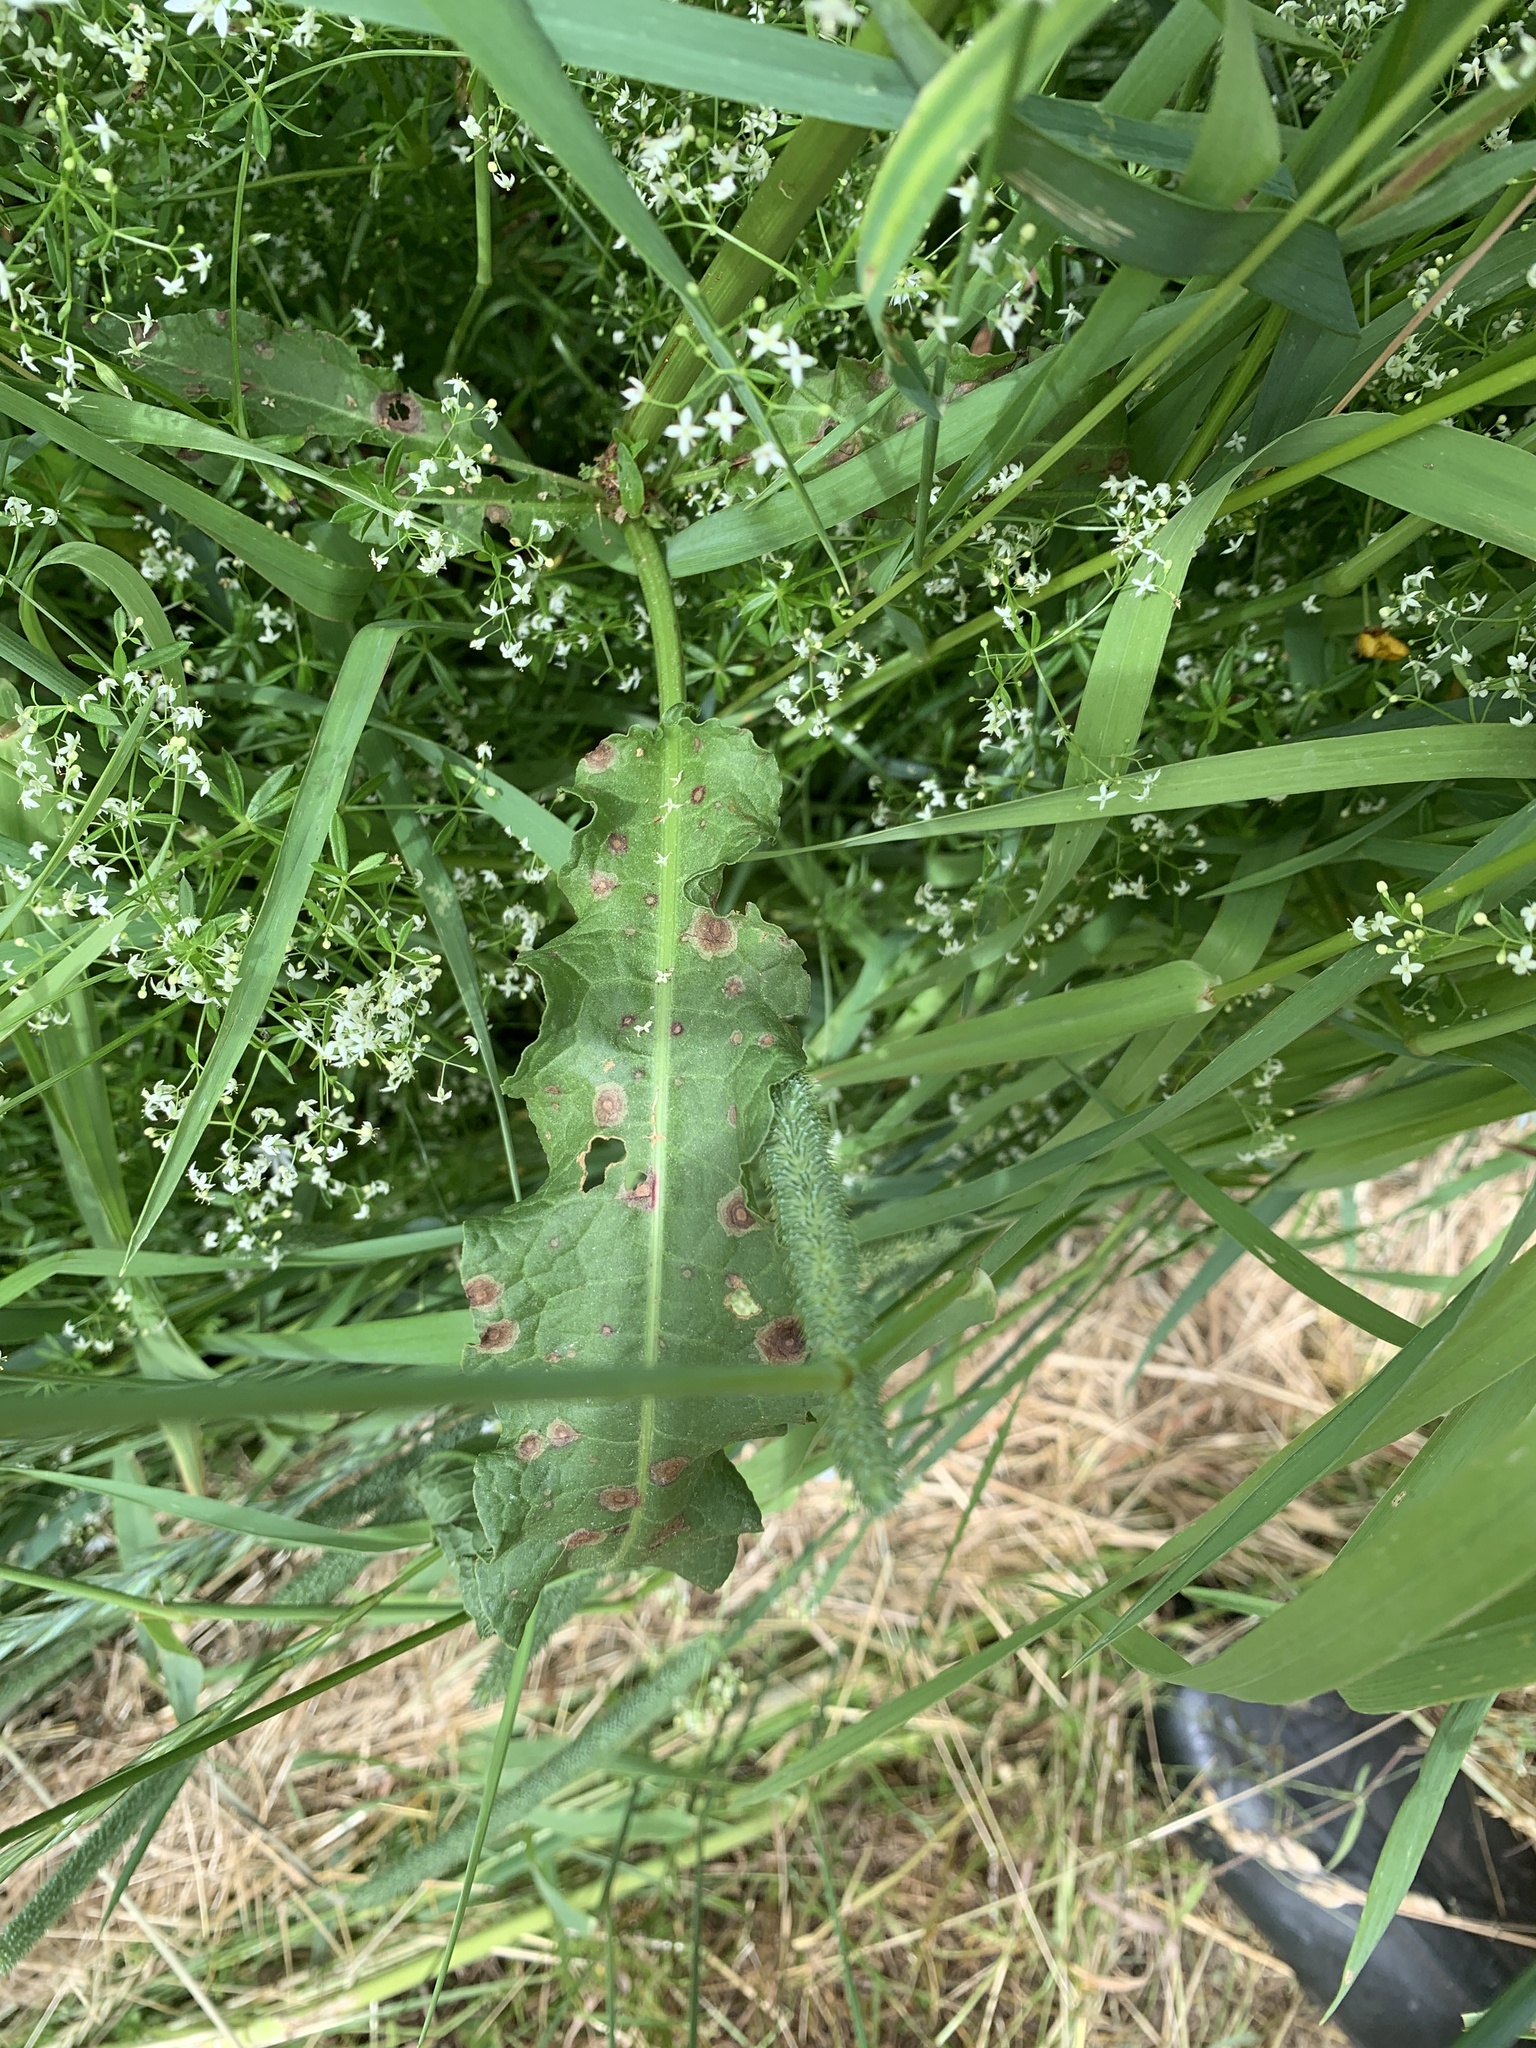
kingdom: Plantae
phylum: Tracheophyta
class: Magnoliopsida
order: Caryophyllales
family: Polygonaceae
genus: Rumex
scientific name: Rumex crispus
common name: Curled dock
